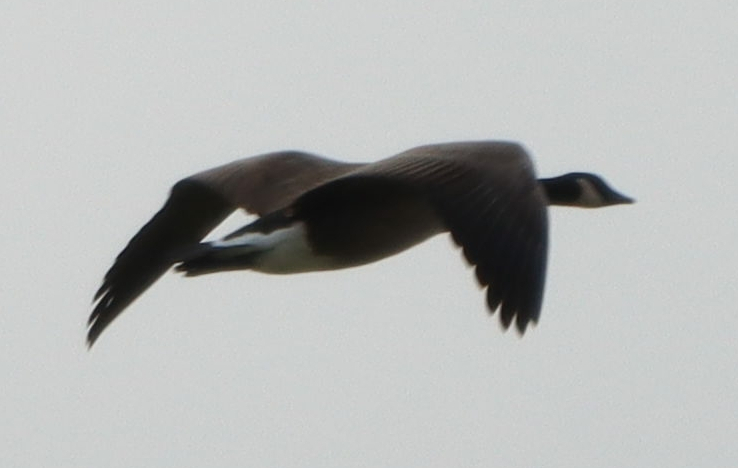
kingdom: Animalia
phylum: Chordata
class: Aves
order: Anseriformes
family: Anatidae
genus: Branta
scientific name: Branta canadensis
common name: Canada goose
